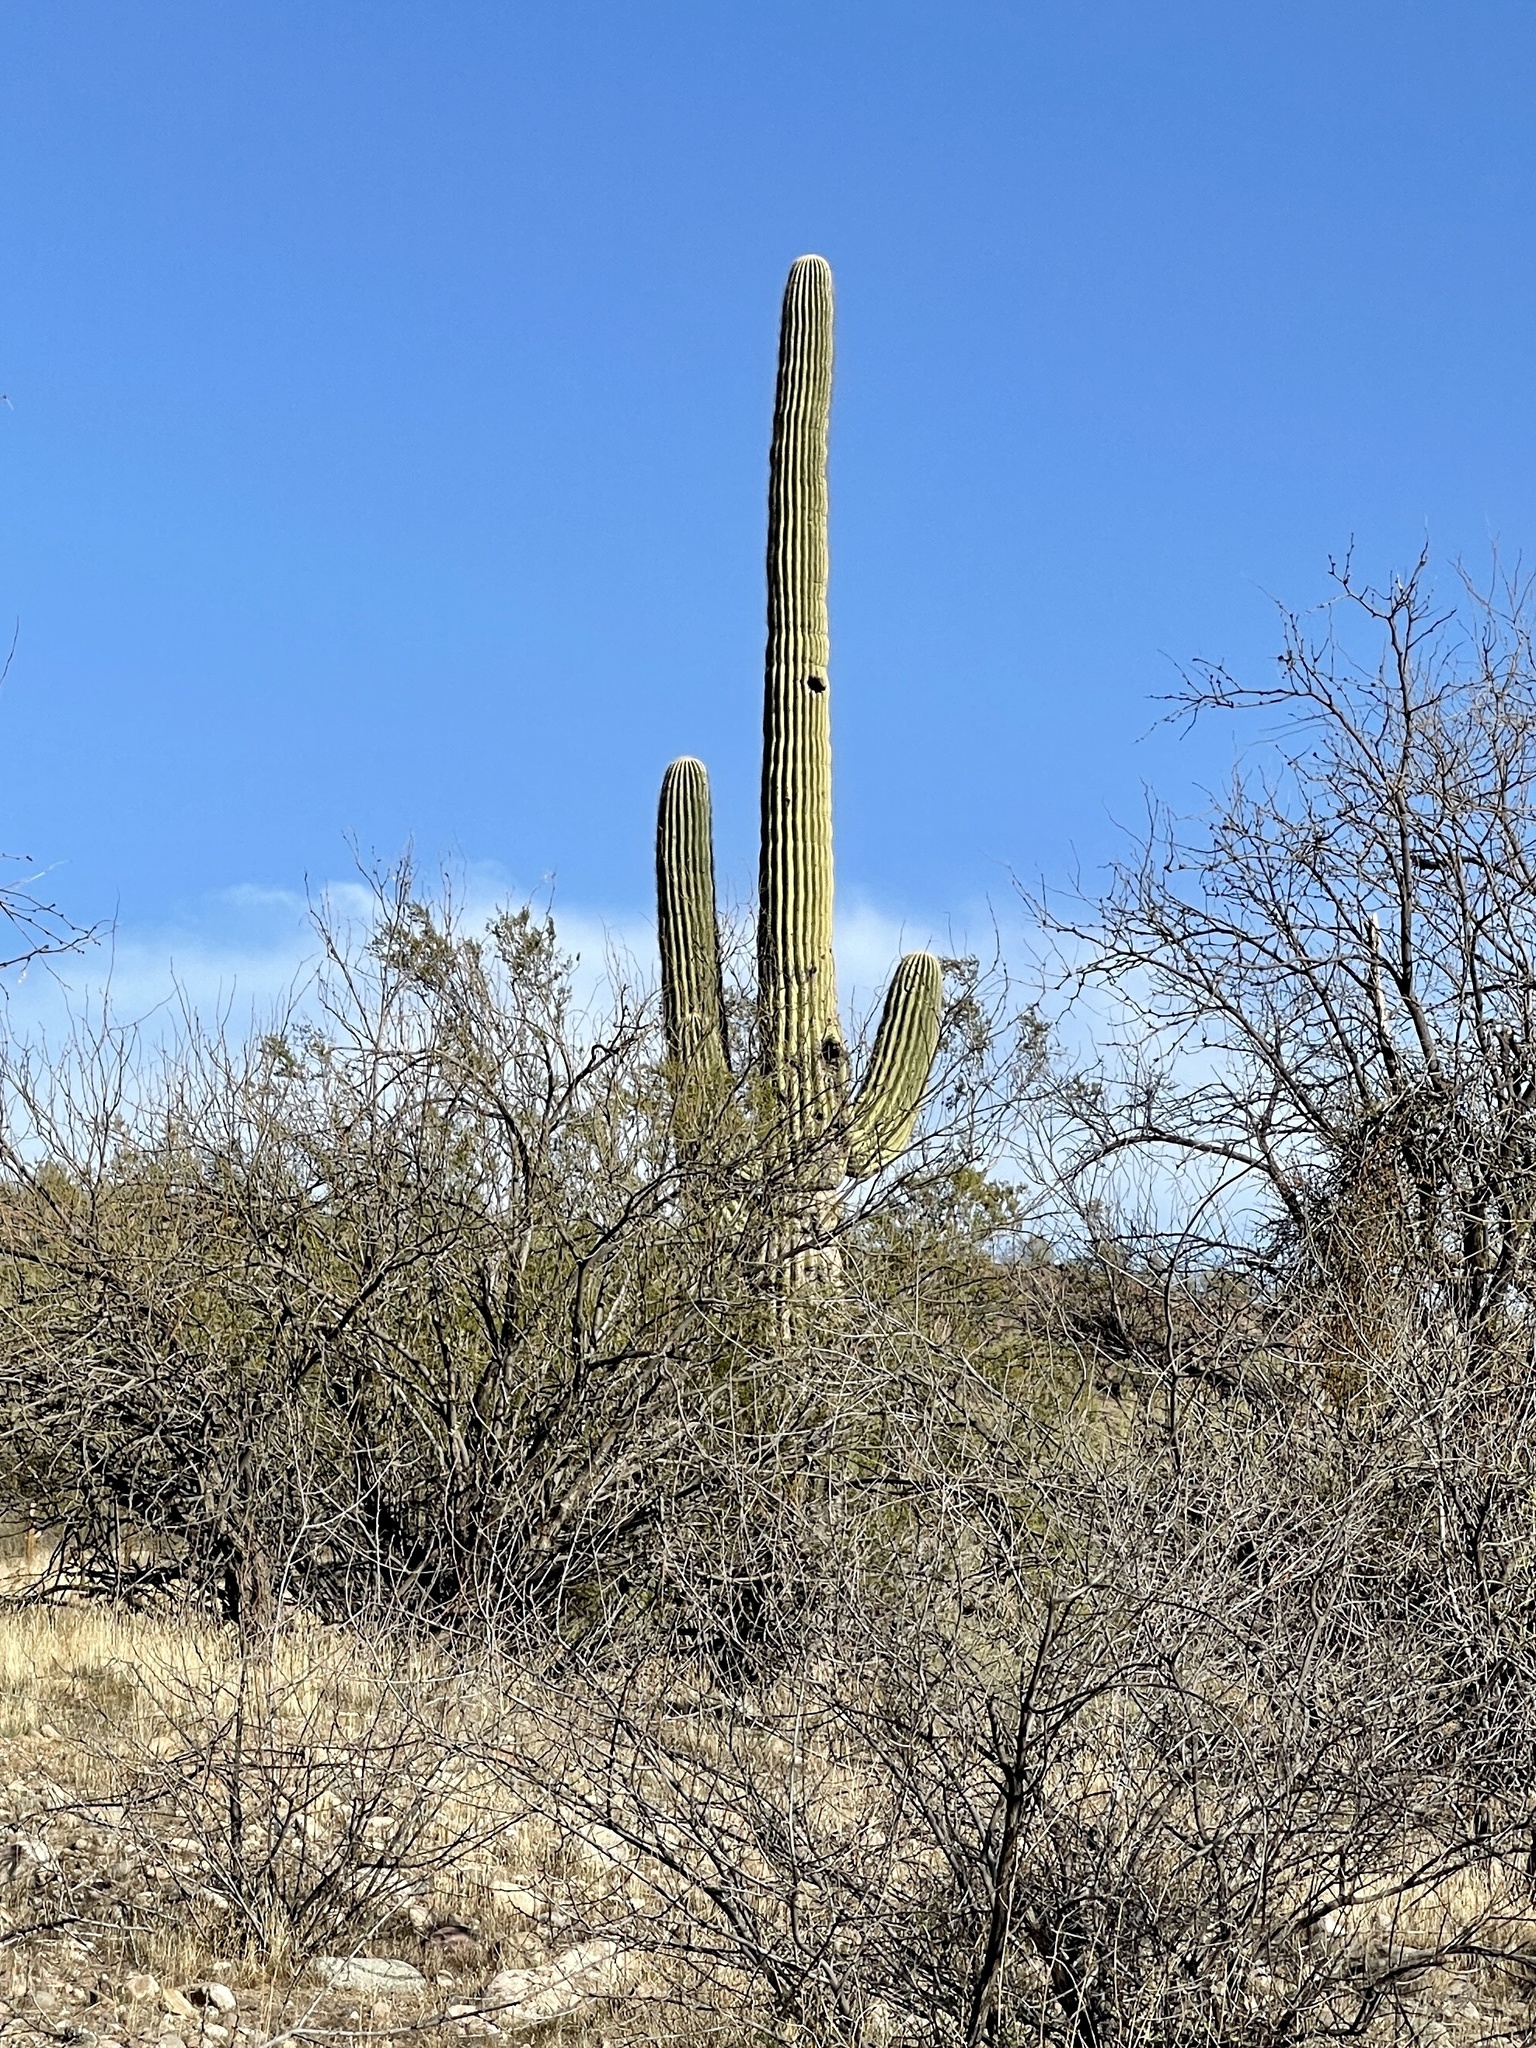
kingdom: Plantae
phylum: Tracheophyta
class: Magnoliopsida
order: Caryophyllales
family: Cactaceae
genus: Carnegiea
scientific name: Carnegiea gigantea
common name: Saguaro
